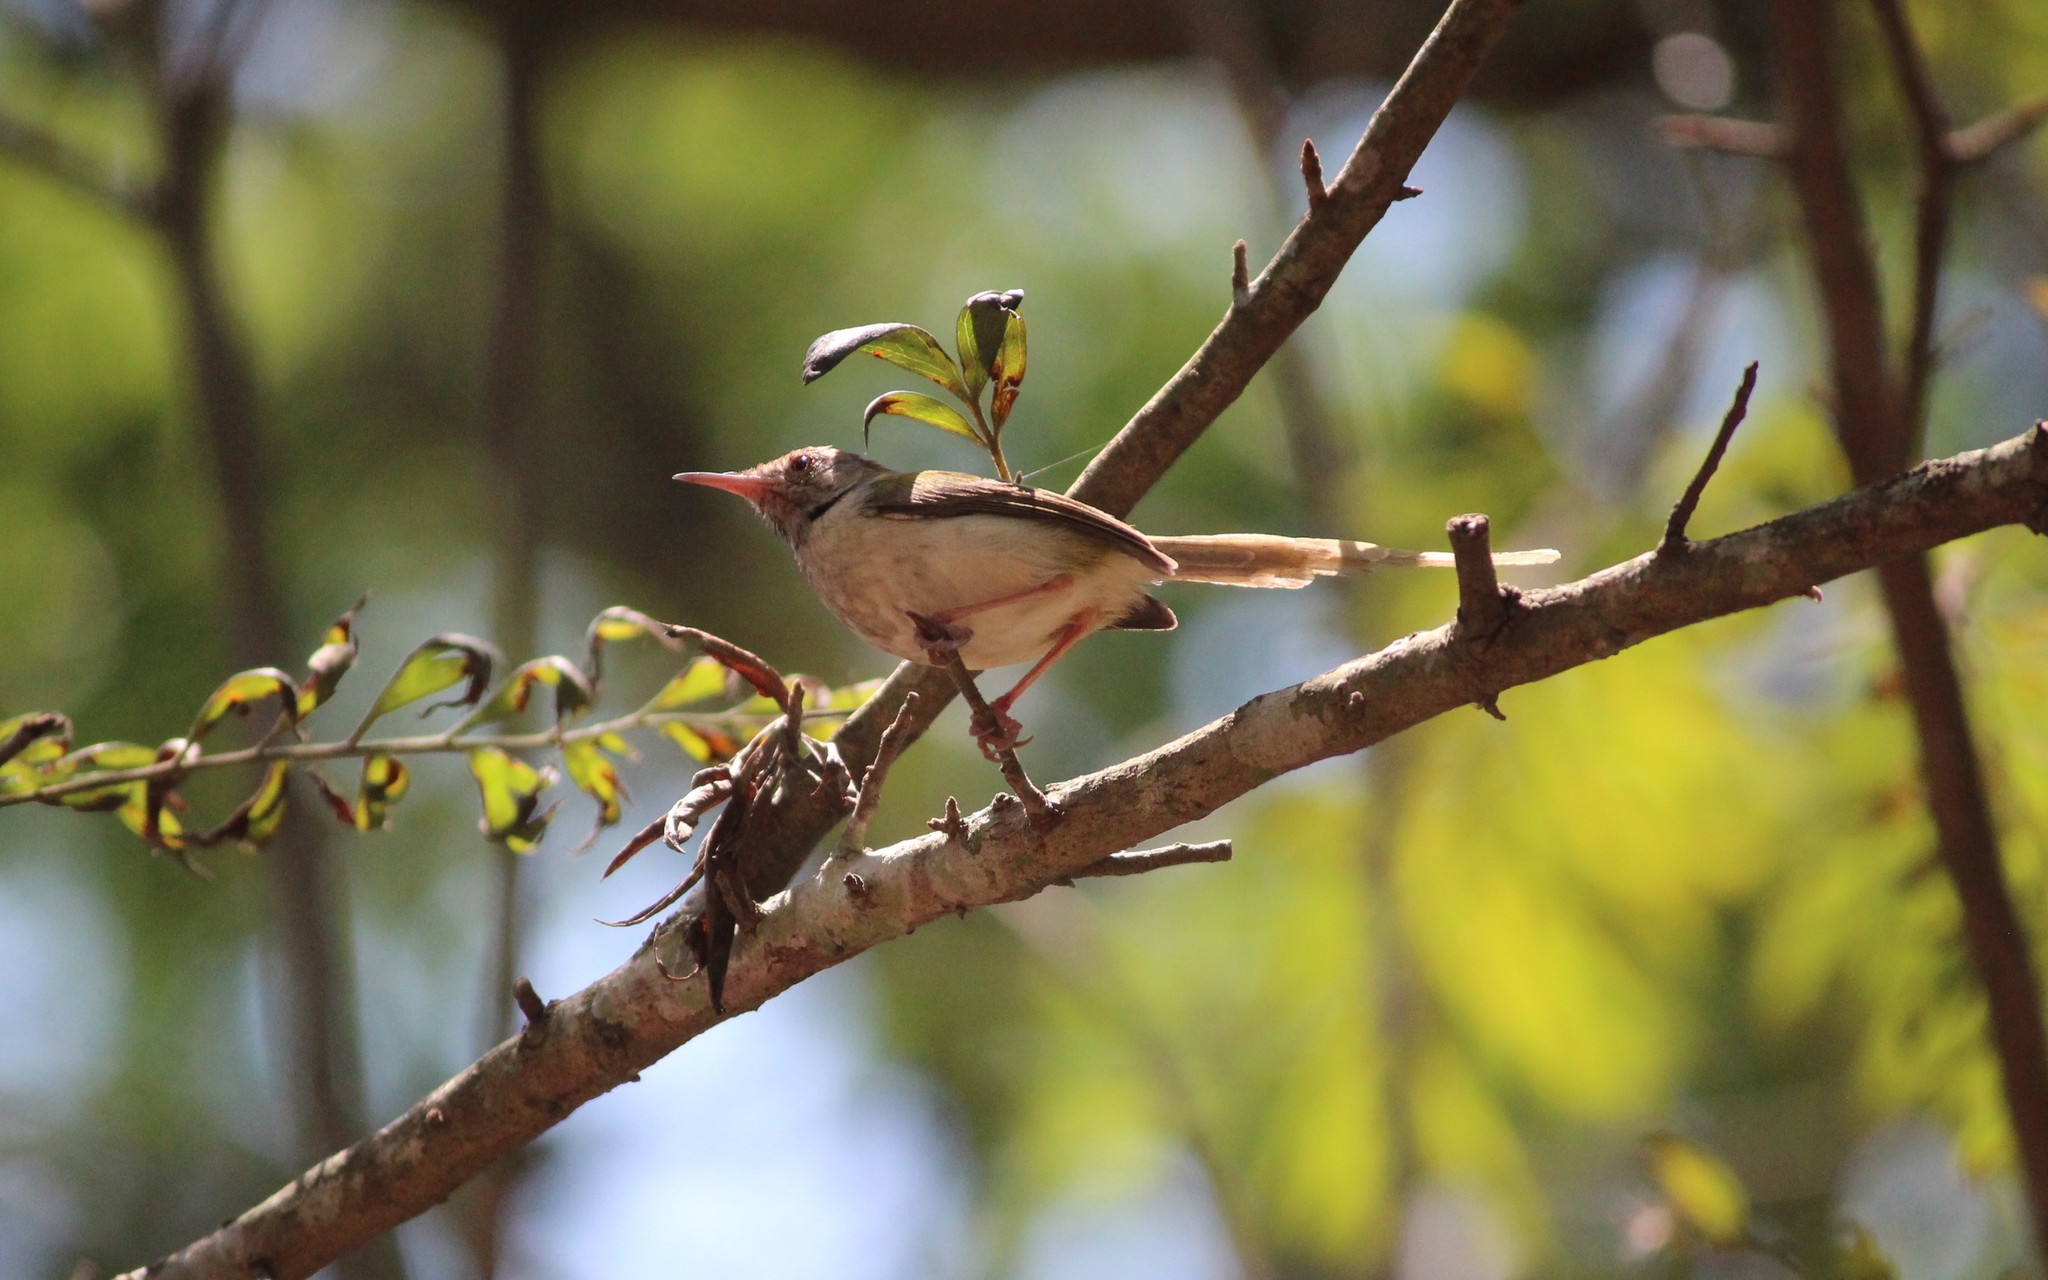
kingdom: Animalia
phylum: Chordata
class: Aves
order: Passeriformes
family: Cisticolidae
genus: Orthotomus
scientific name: Orthotomus sutorius
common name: Common tailorbird
